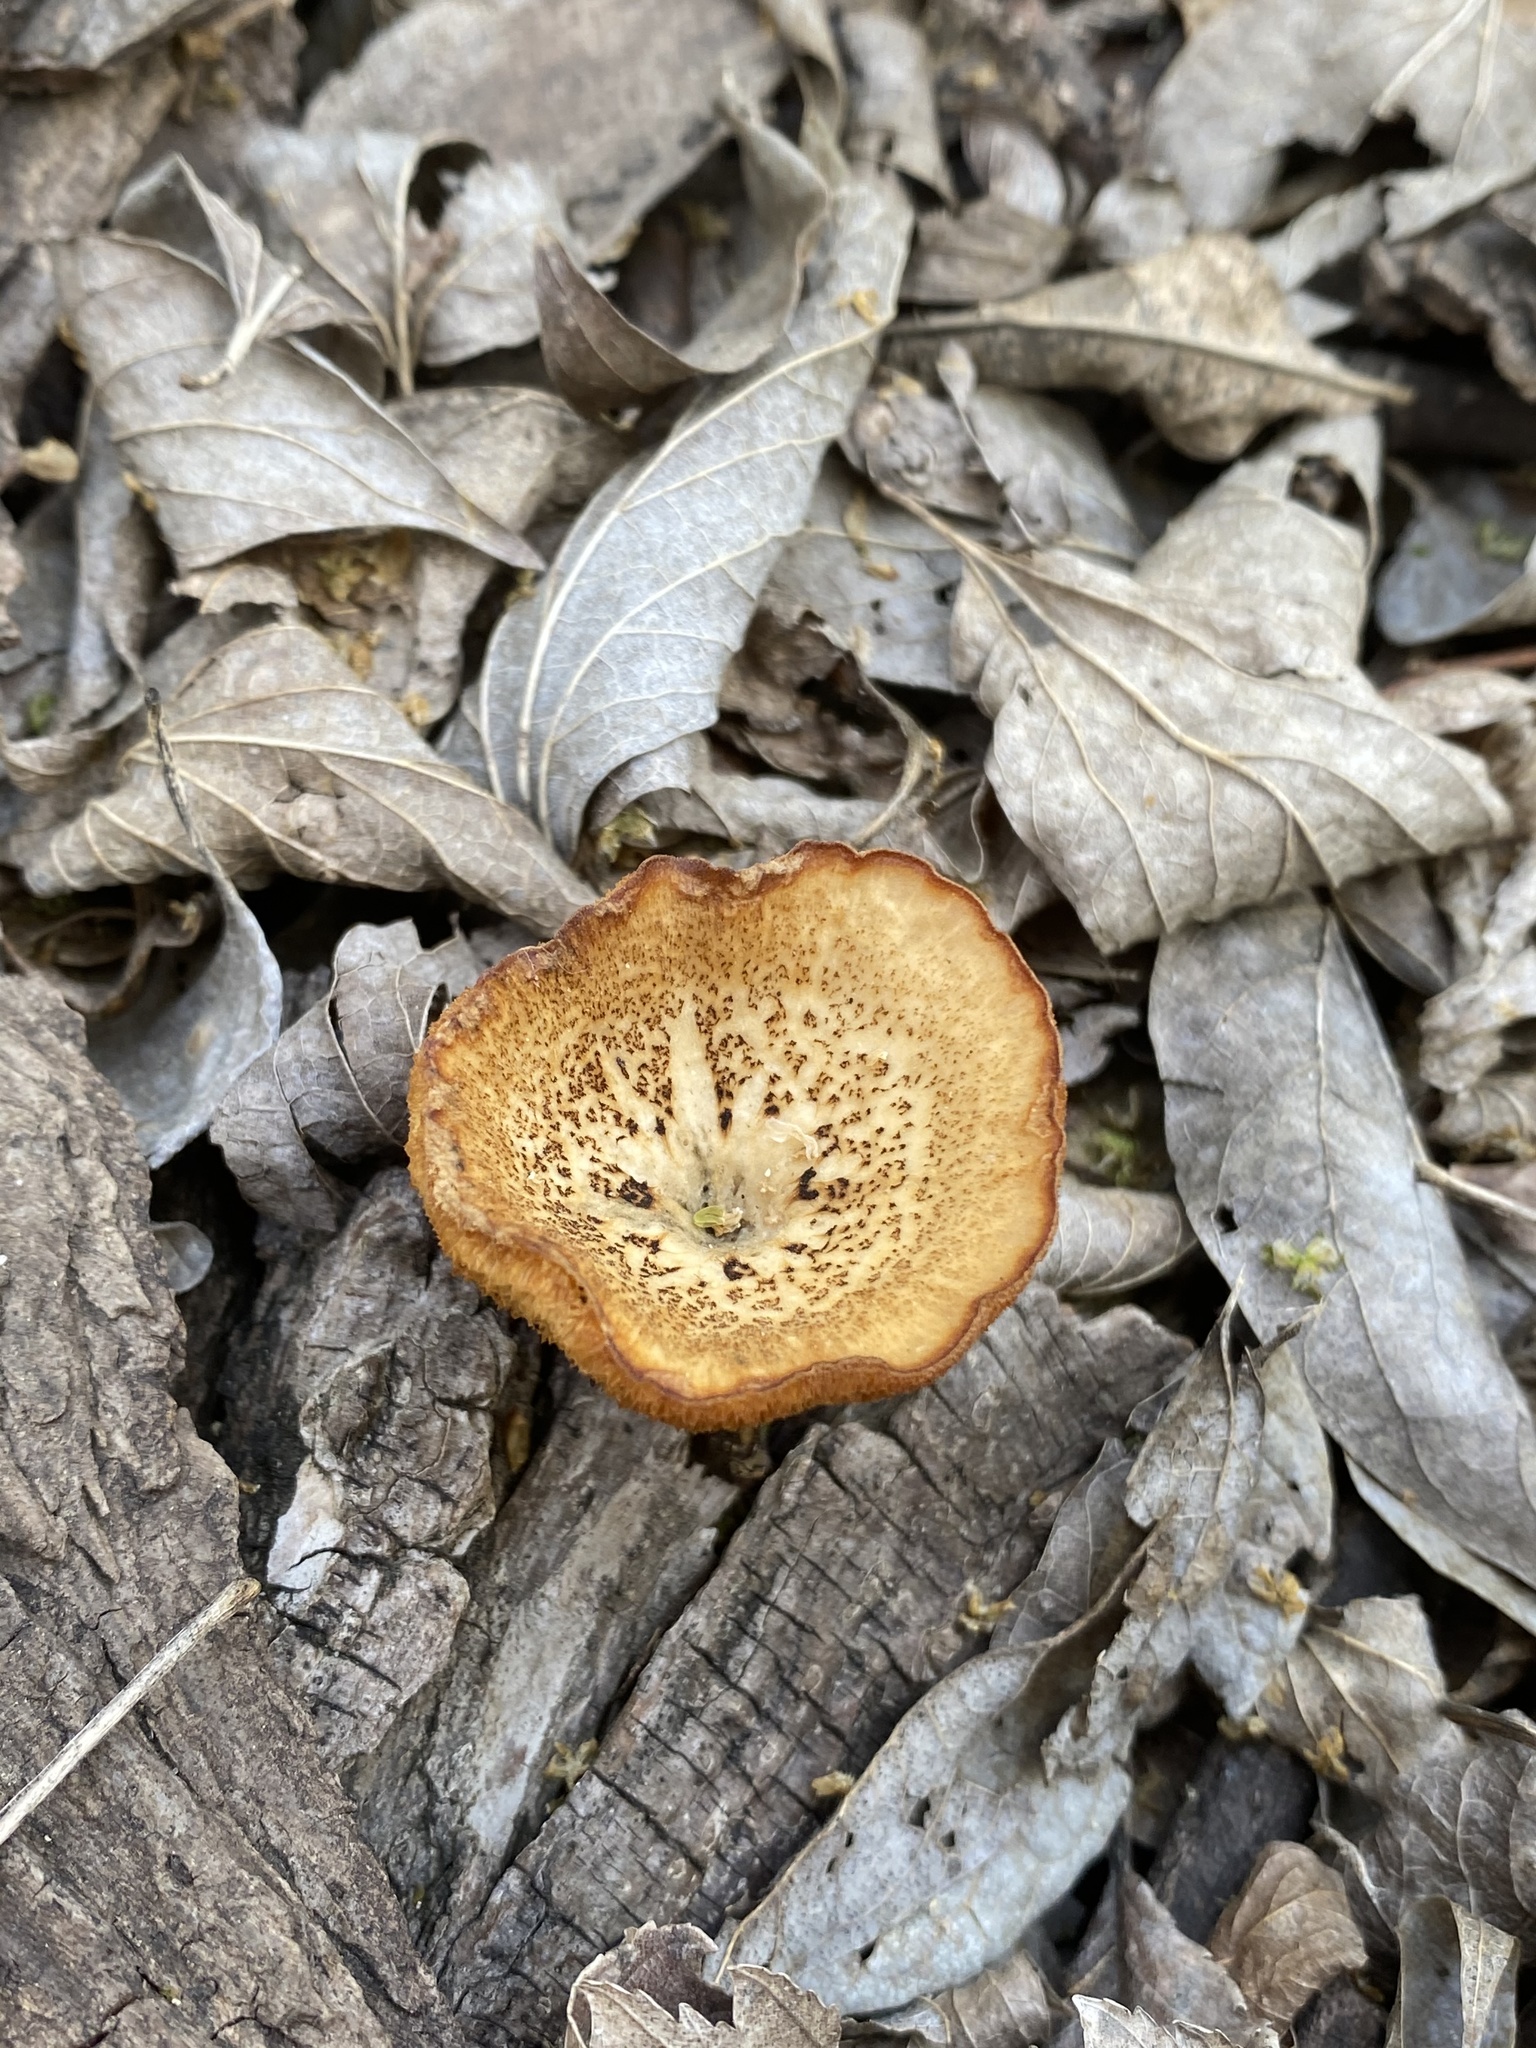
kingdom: Fungi
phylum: Basidiomycota
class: Agaricomycetes
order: Polyporales
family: Polyporaceae
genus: Lentinus
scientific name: Lentinus arcularius
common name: Spring polypore
